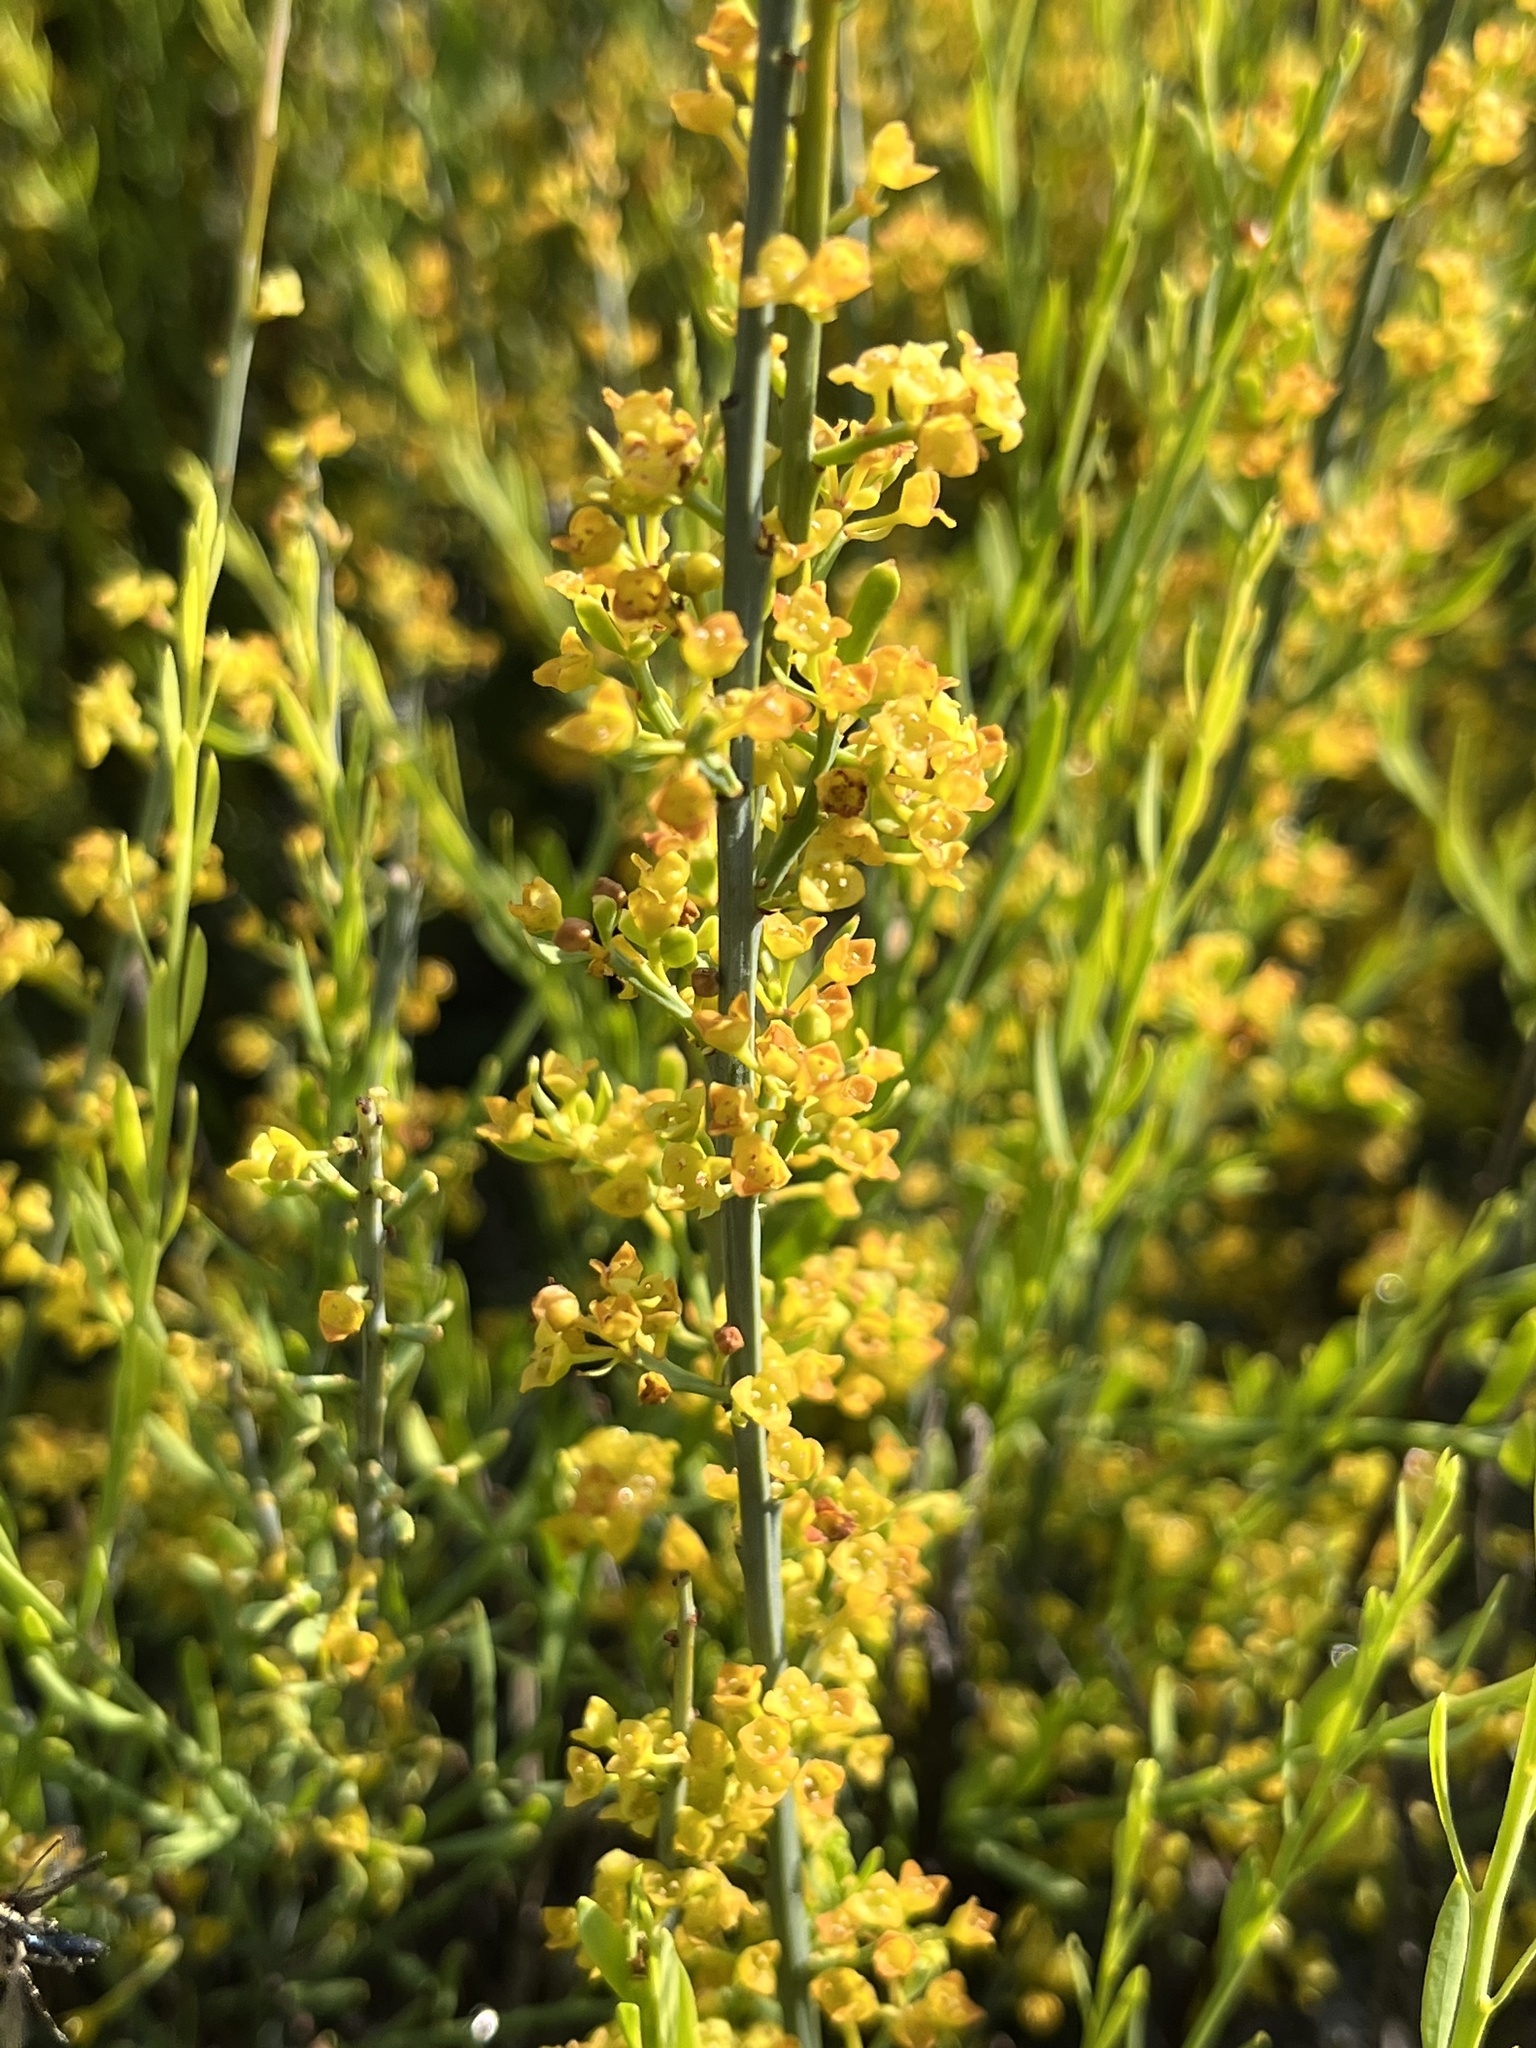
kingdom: Plantae
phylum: Tracheophyta
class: Magnoliopsida
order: Santalales
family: Santalaceae
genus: Osyris
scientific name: Osyris alba
